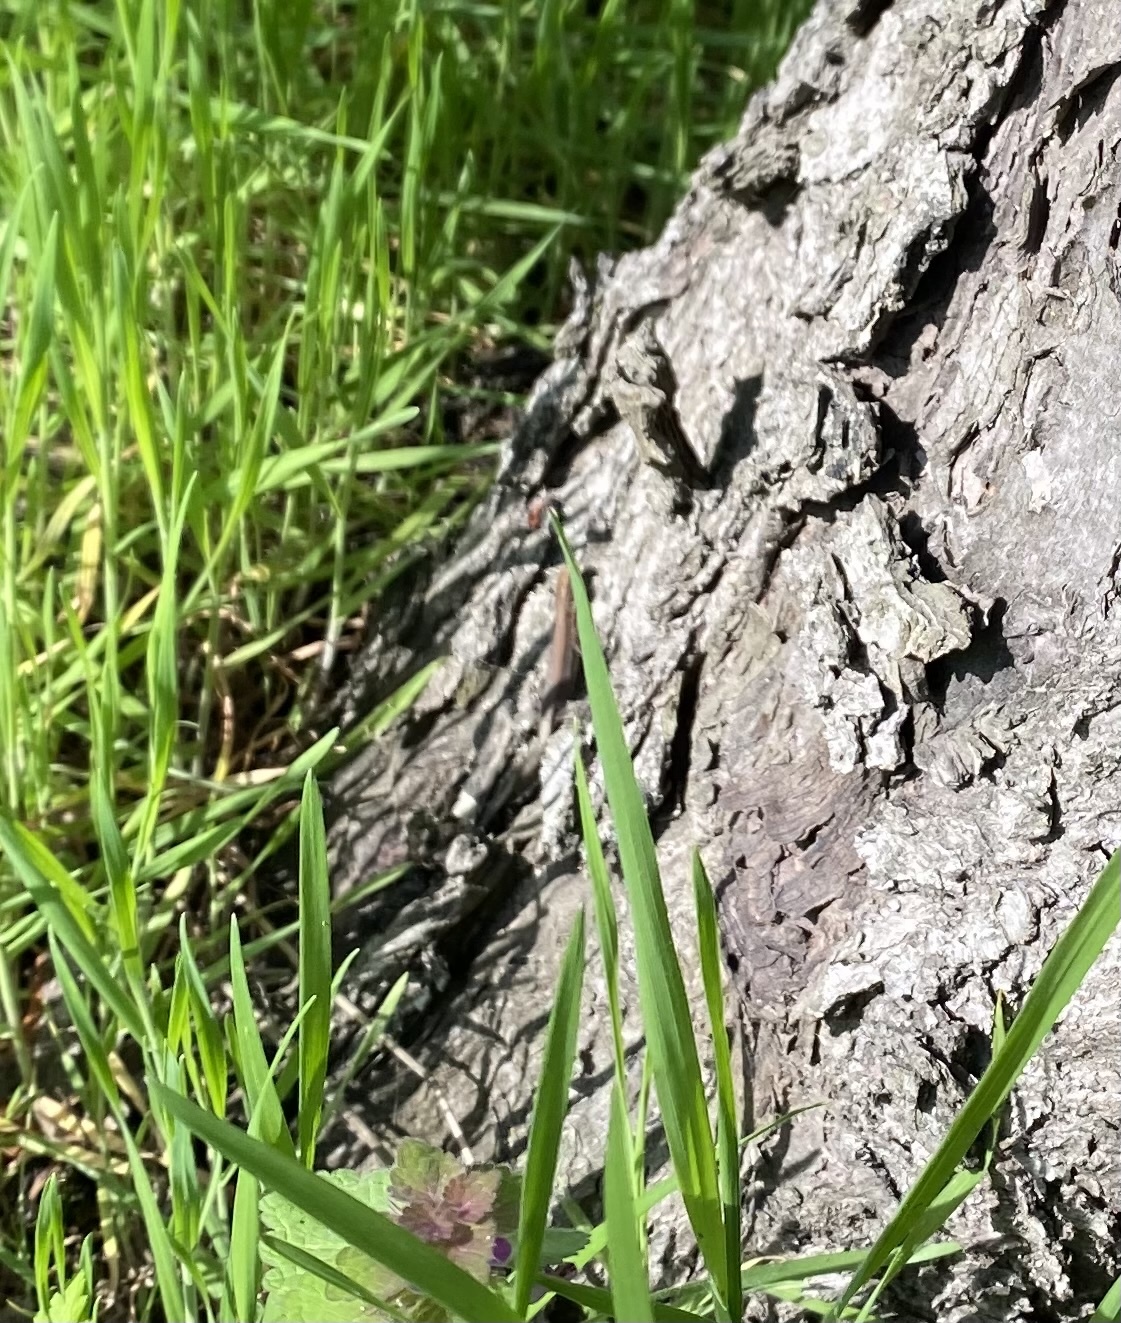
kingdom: Animalia
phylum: Chordata
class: Squamata
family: Lacertidae
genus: Darevskia
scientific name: Darevskia praticola
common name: Meadow lizard
